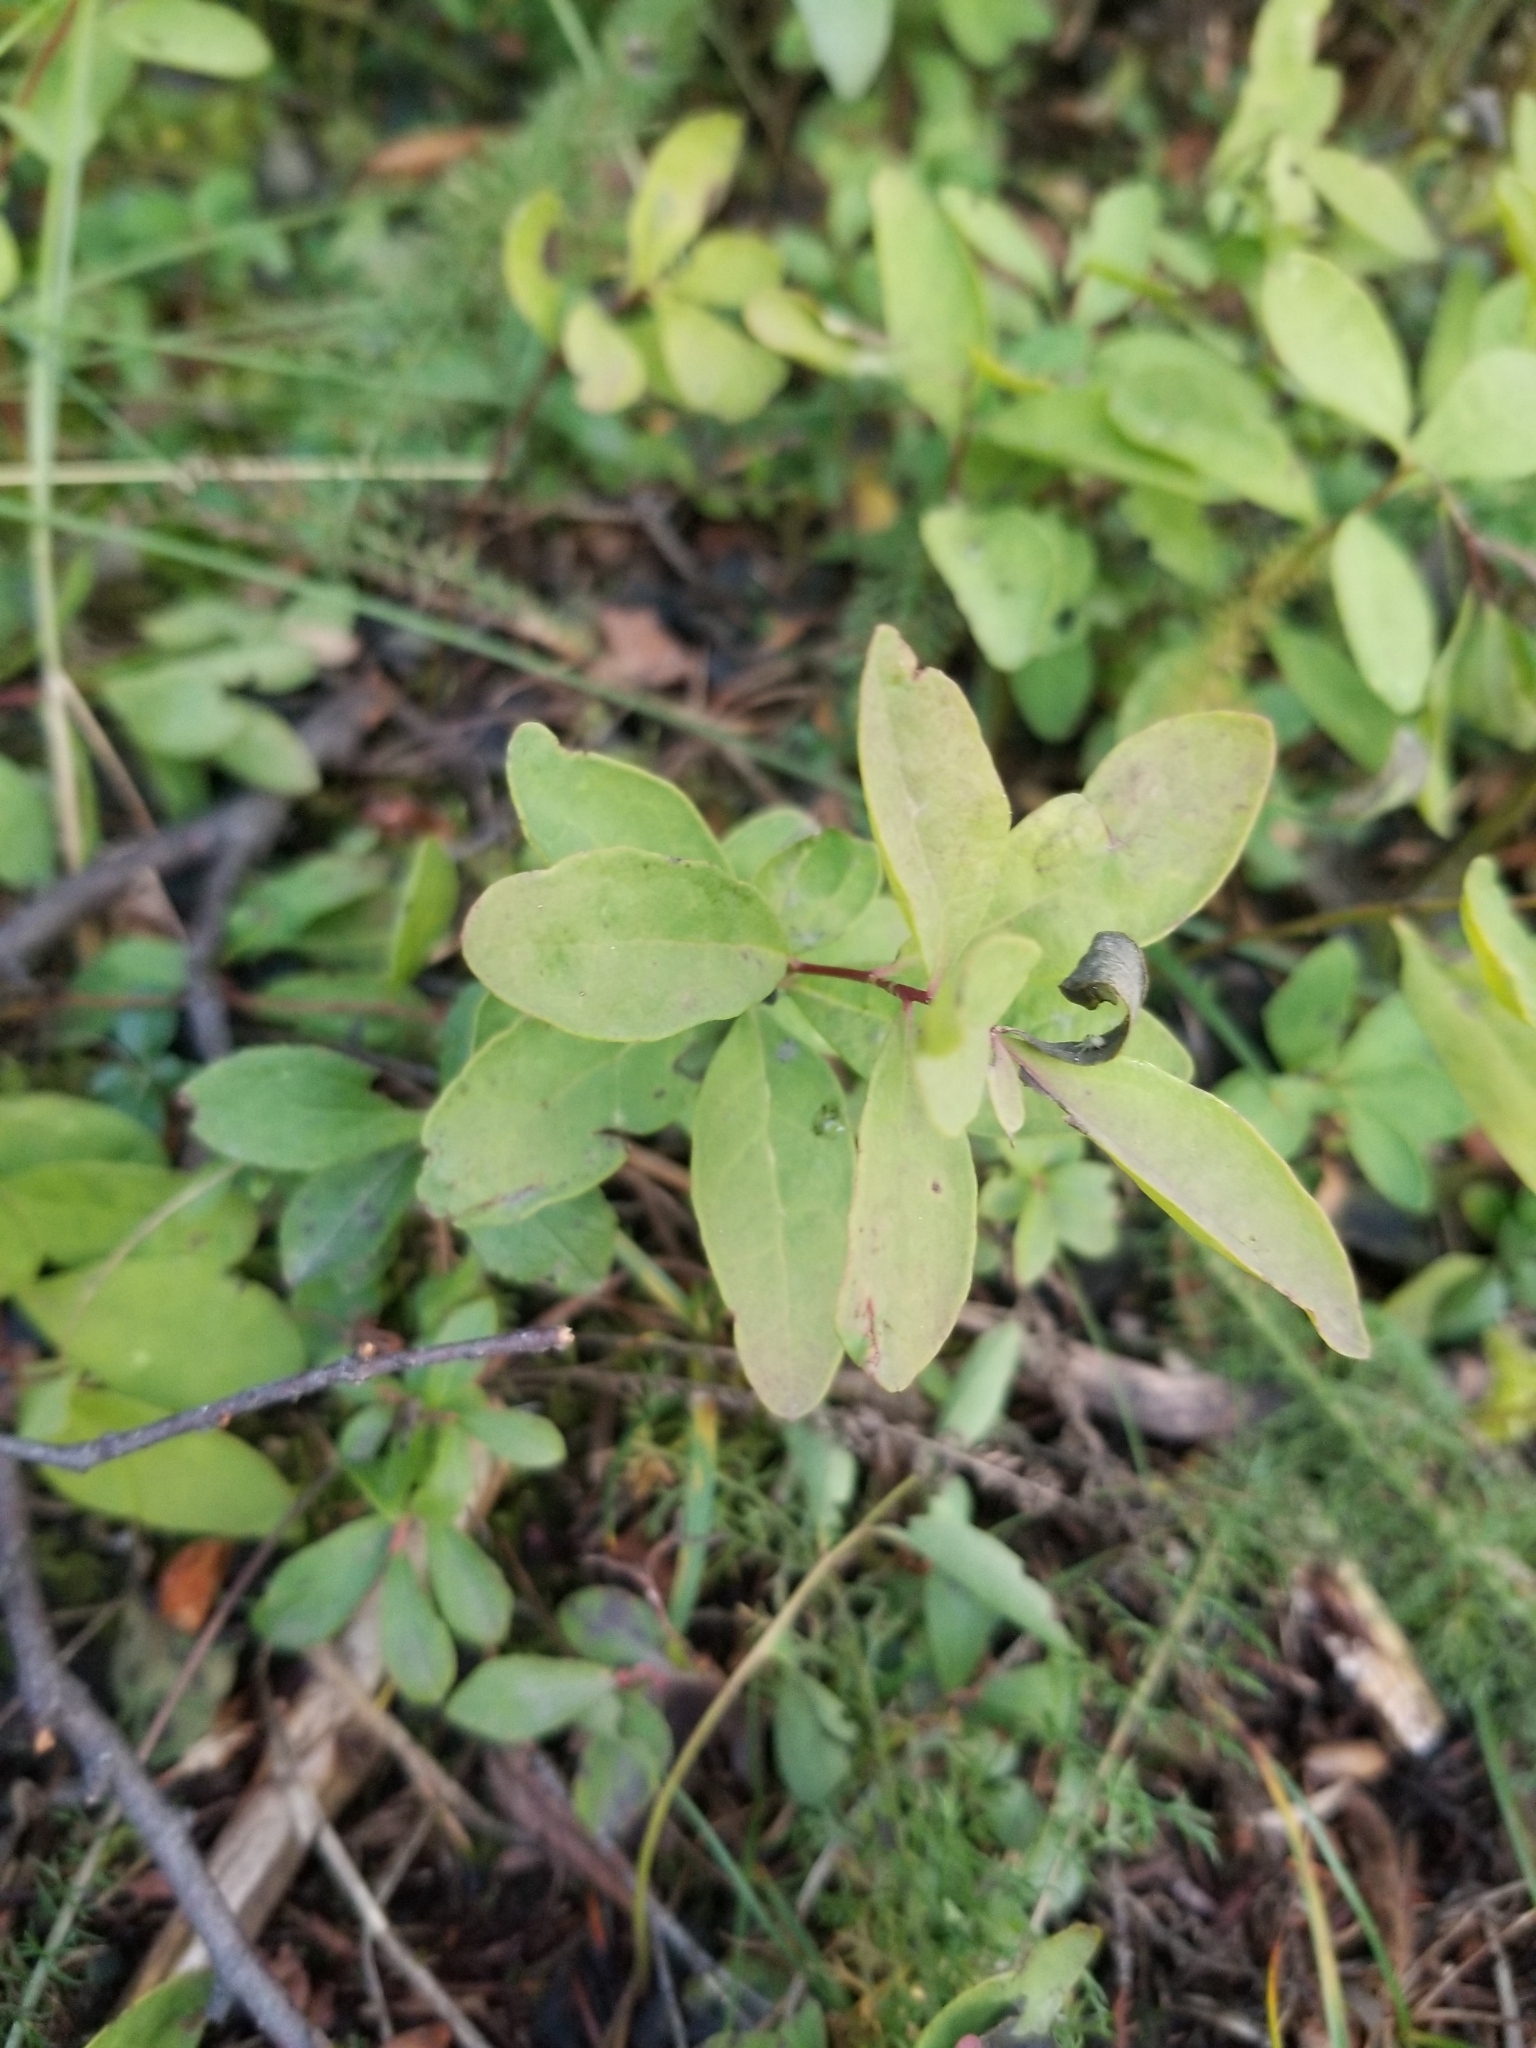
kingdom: Plantae
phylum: Tracheophyta
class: Magnoliopsida
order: Santalales
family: Comandraceae
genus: Geocaulon
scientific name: Geocaulon lividum
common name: Earthberry
